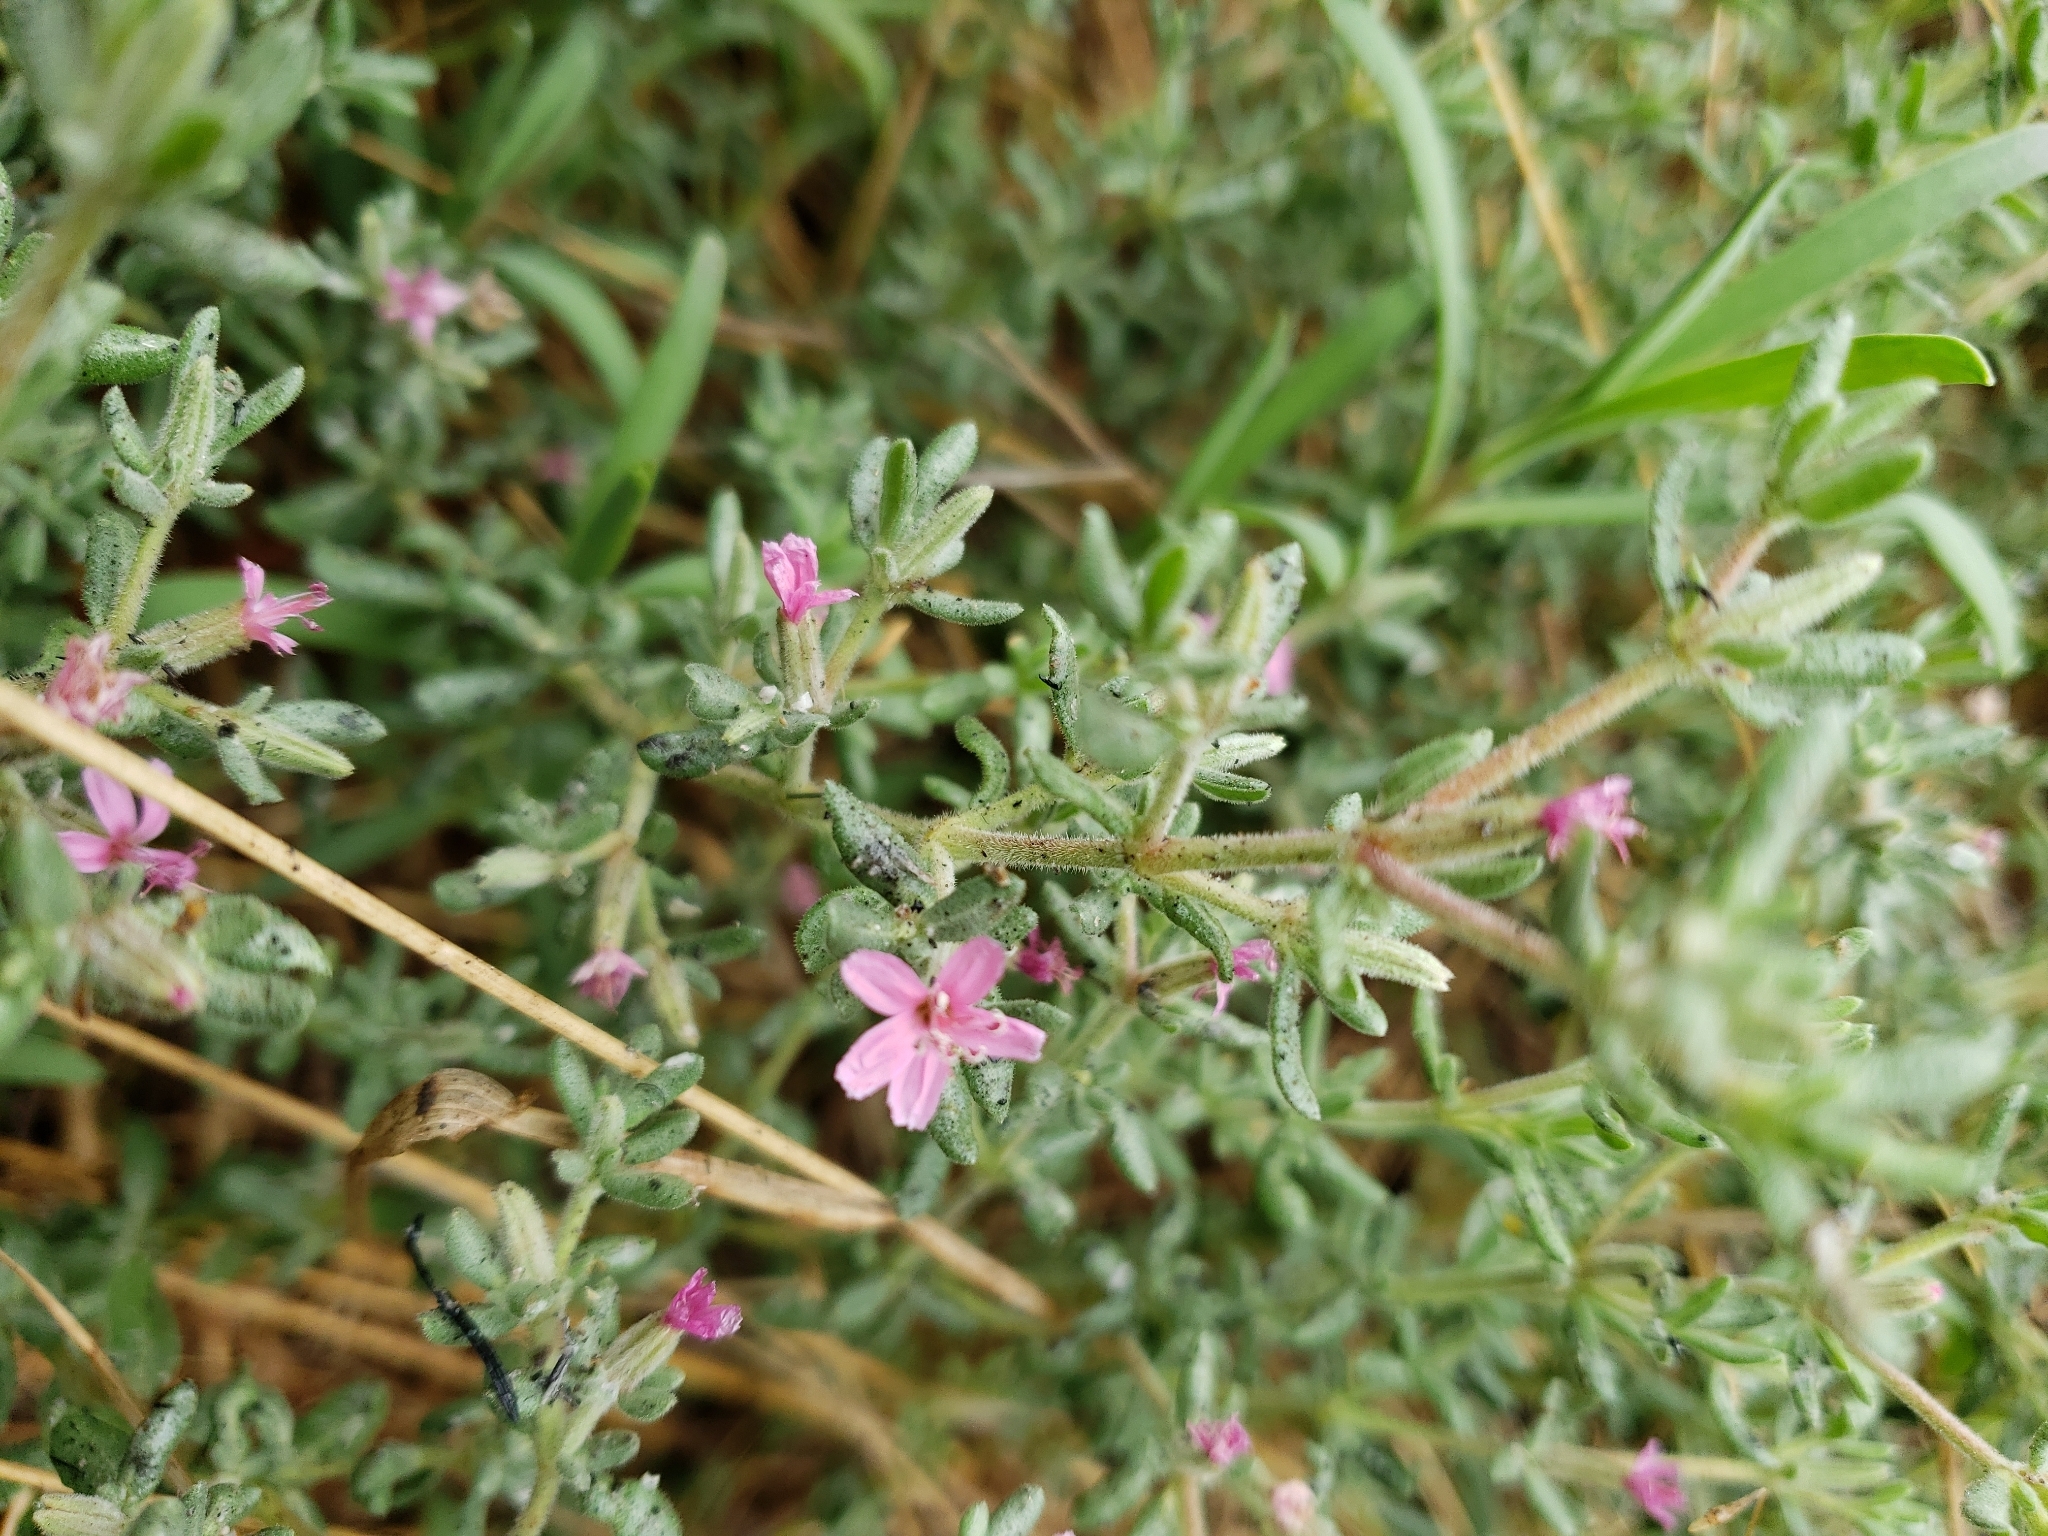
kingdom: Plantae
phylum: Tracheophyta
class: Magnoliopsida
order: Caryophyllales
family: Frankeniaceae
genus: Frankenia
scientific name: Frankenia salina
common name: Alkali seaheath
